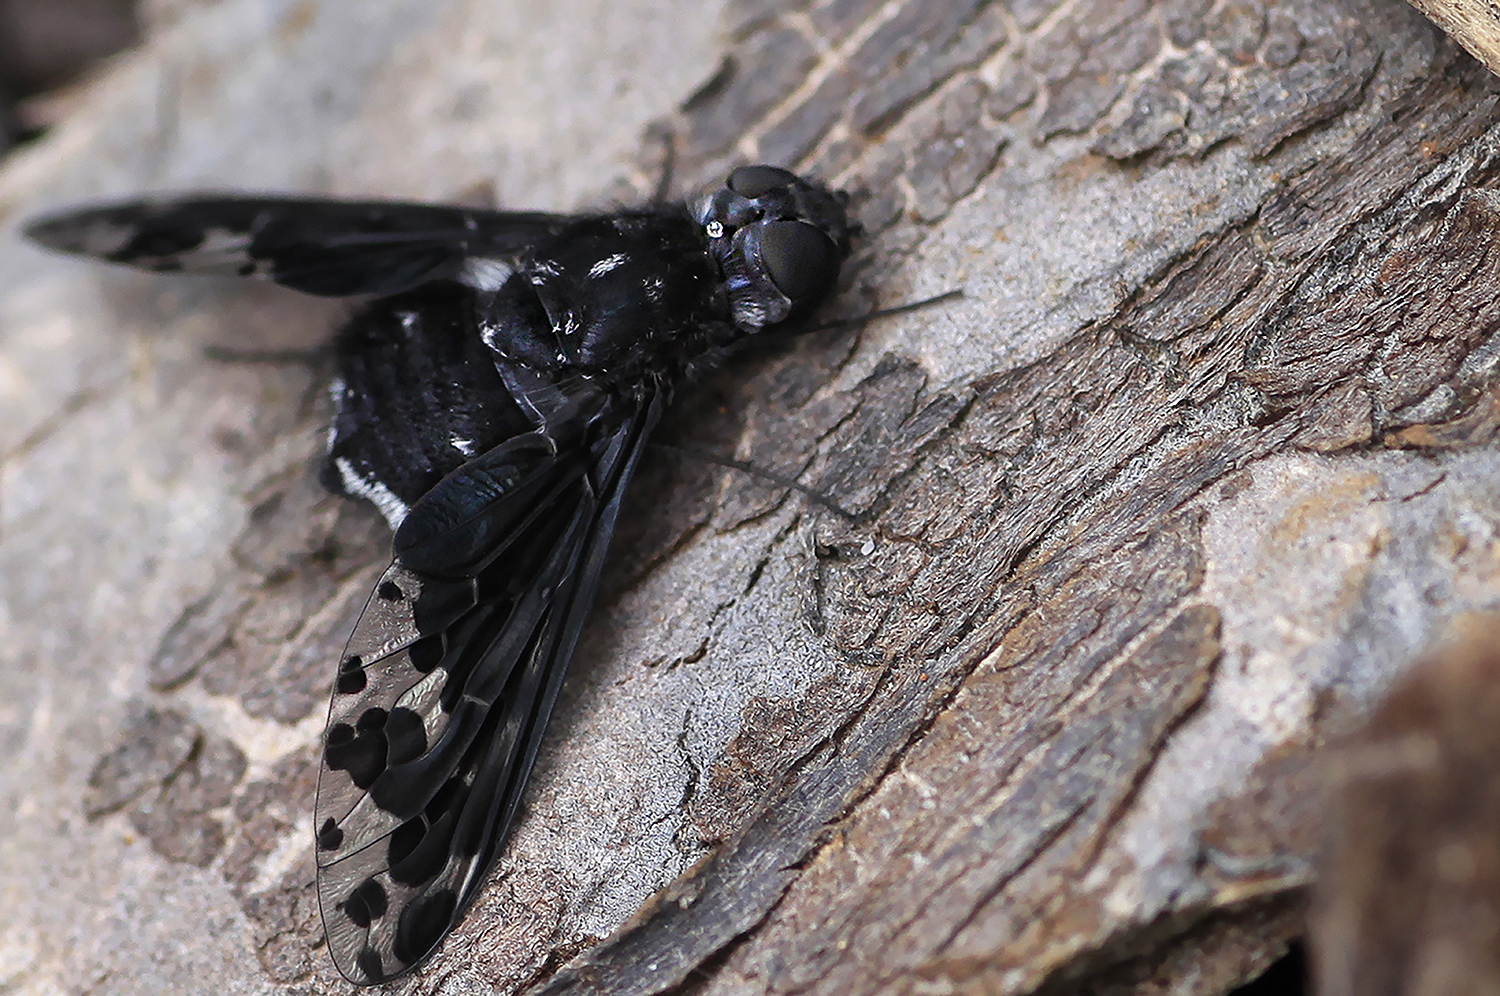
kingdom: Animalia
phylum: Arthropoda
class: Insecta
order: Diptera
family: Bombyliidae
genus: Anthrax
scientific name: Anthrax maculata
